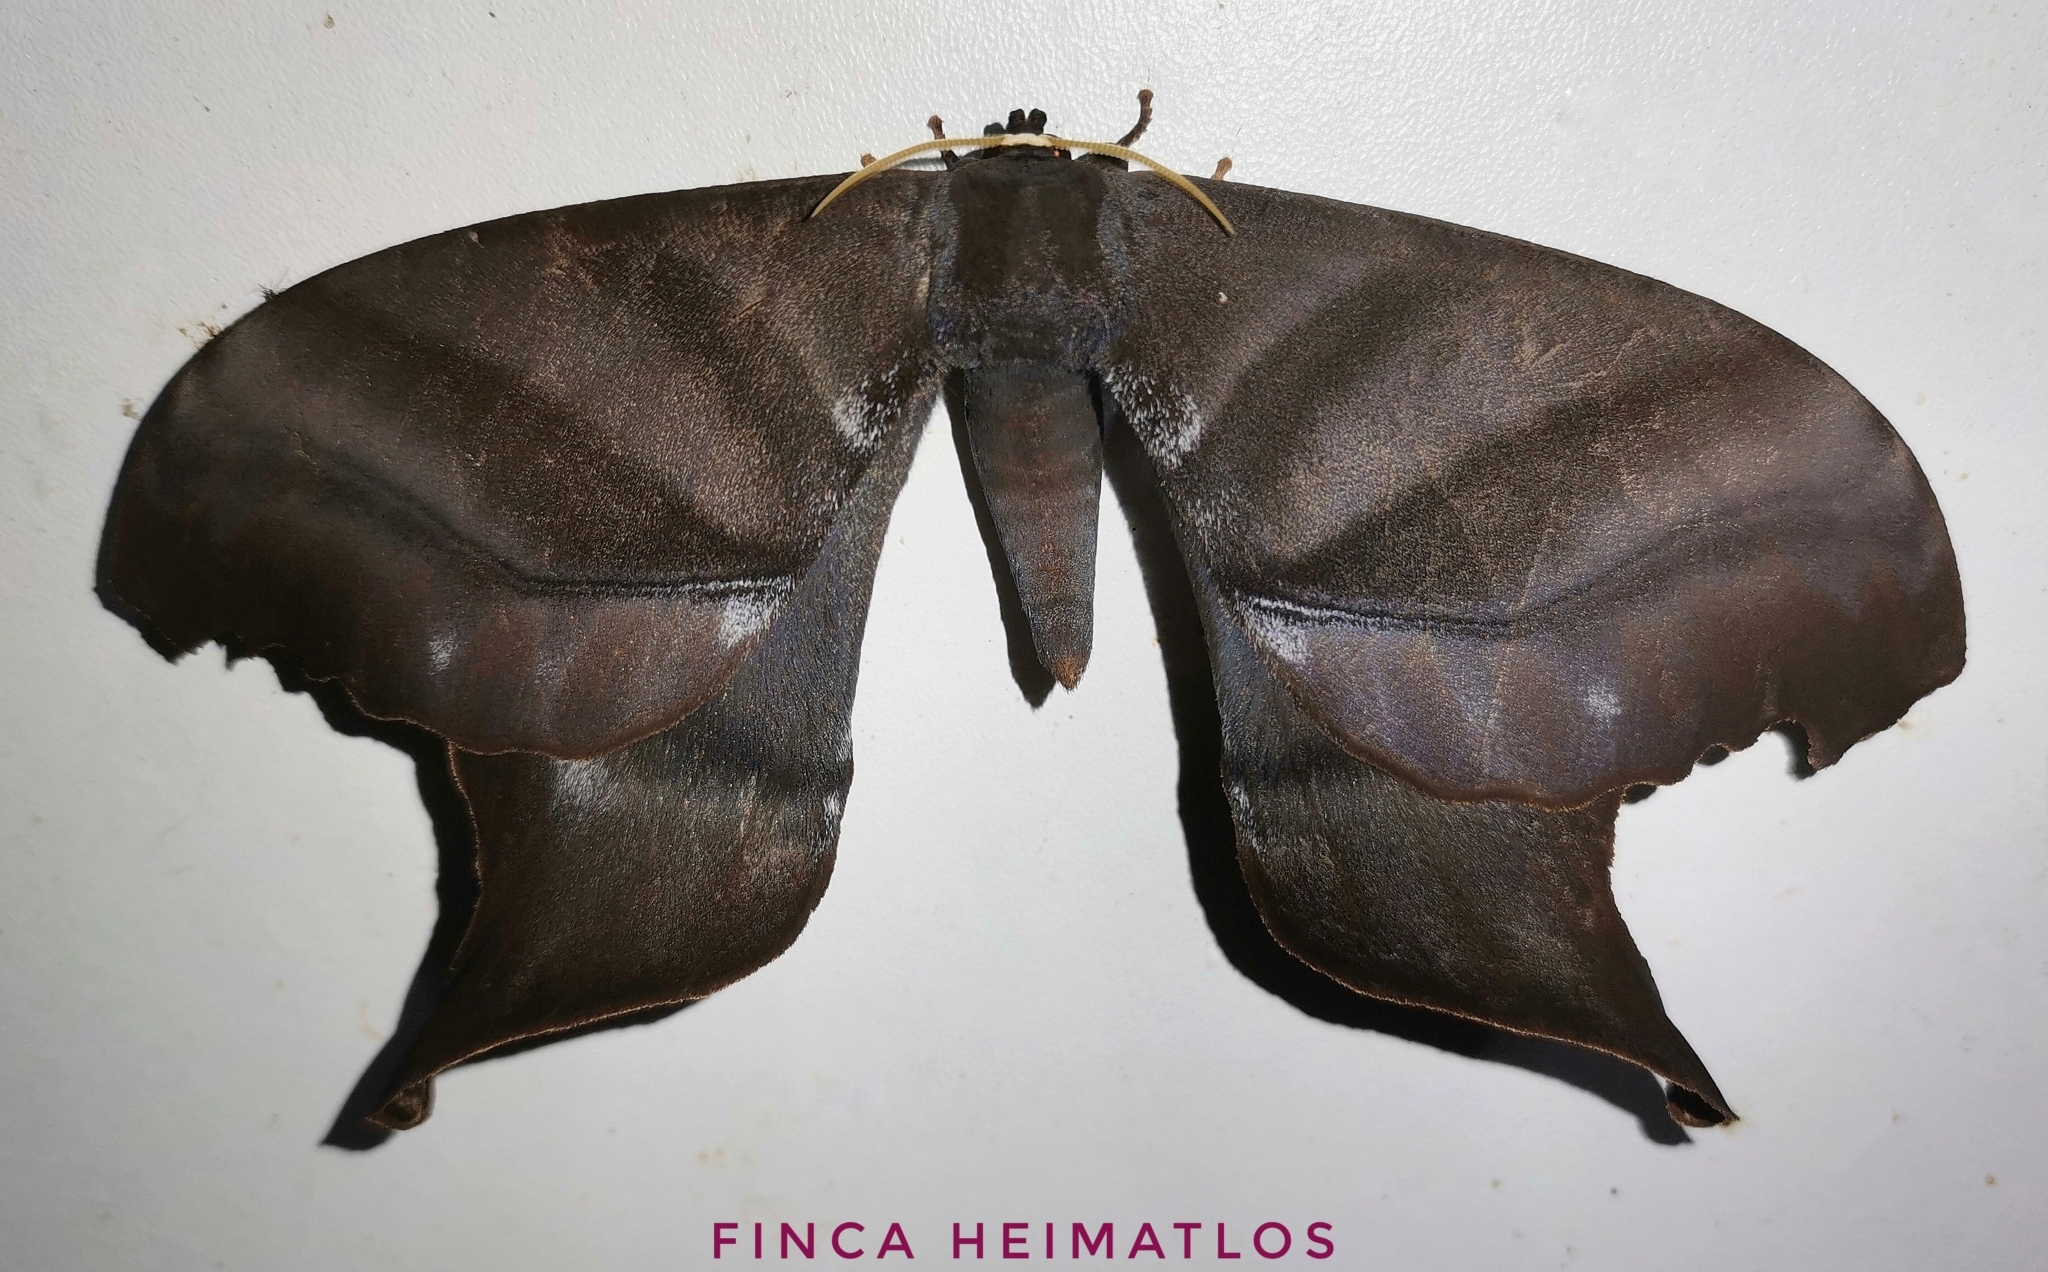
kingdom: Animalia
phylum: Arthropoda
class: Insecta
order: Lepidoptera
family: Saturniidae
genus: Paradaemonia
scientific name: Paradaemonia platydesmia
